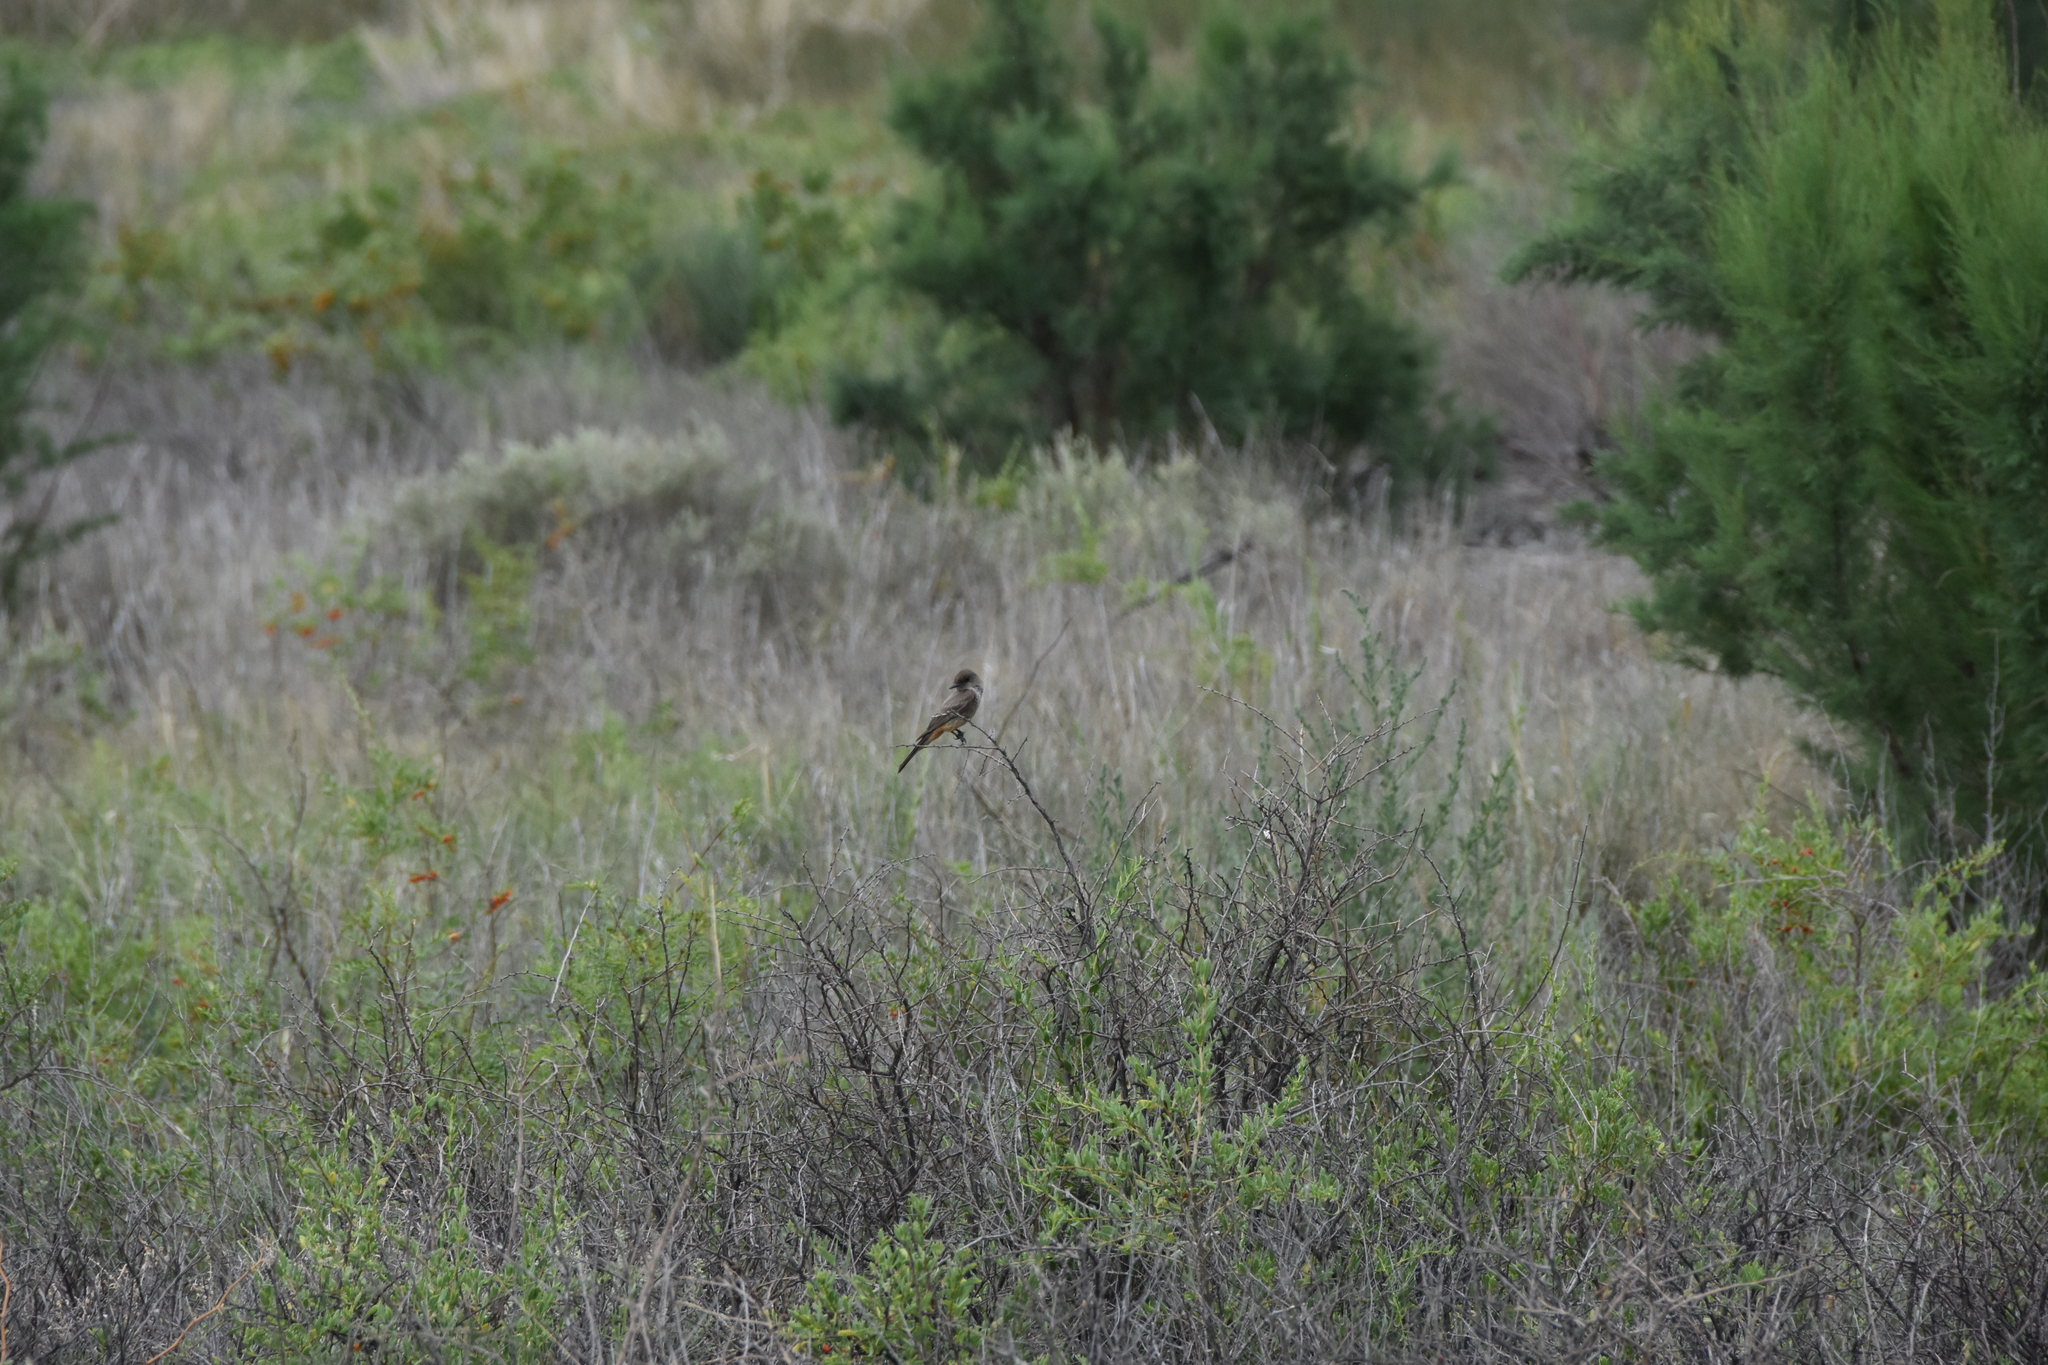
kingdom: Animalia
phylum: Chordata
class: Aves
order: Passeriformes
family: Tyrannidae
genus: Sayornis
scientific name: Sayornis saya
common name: Say's phoebe
